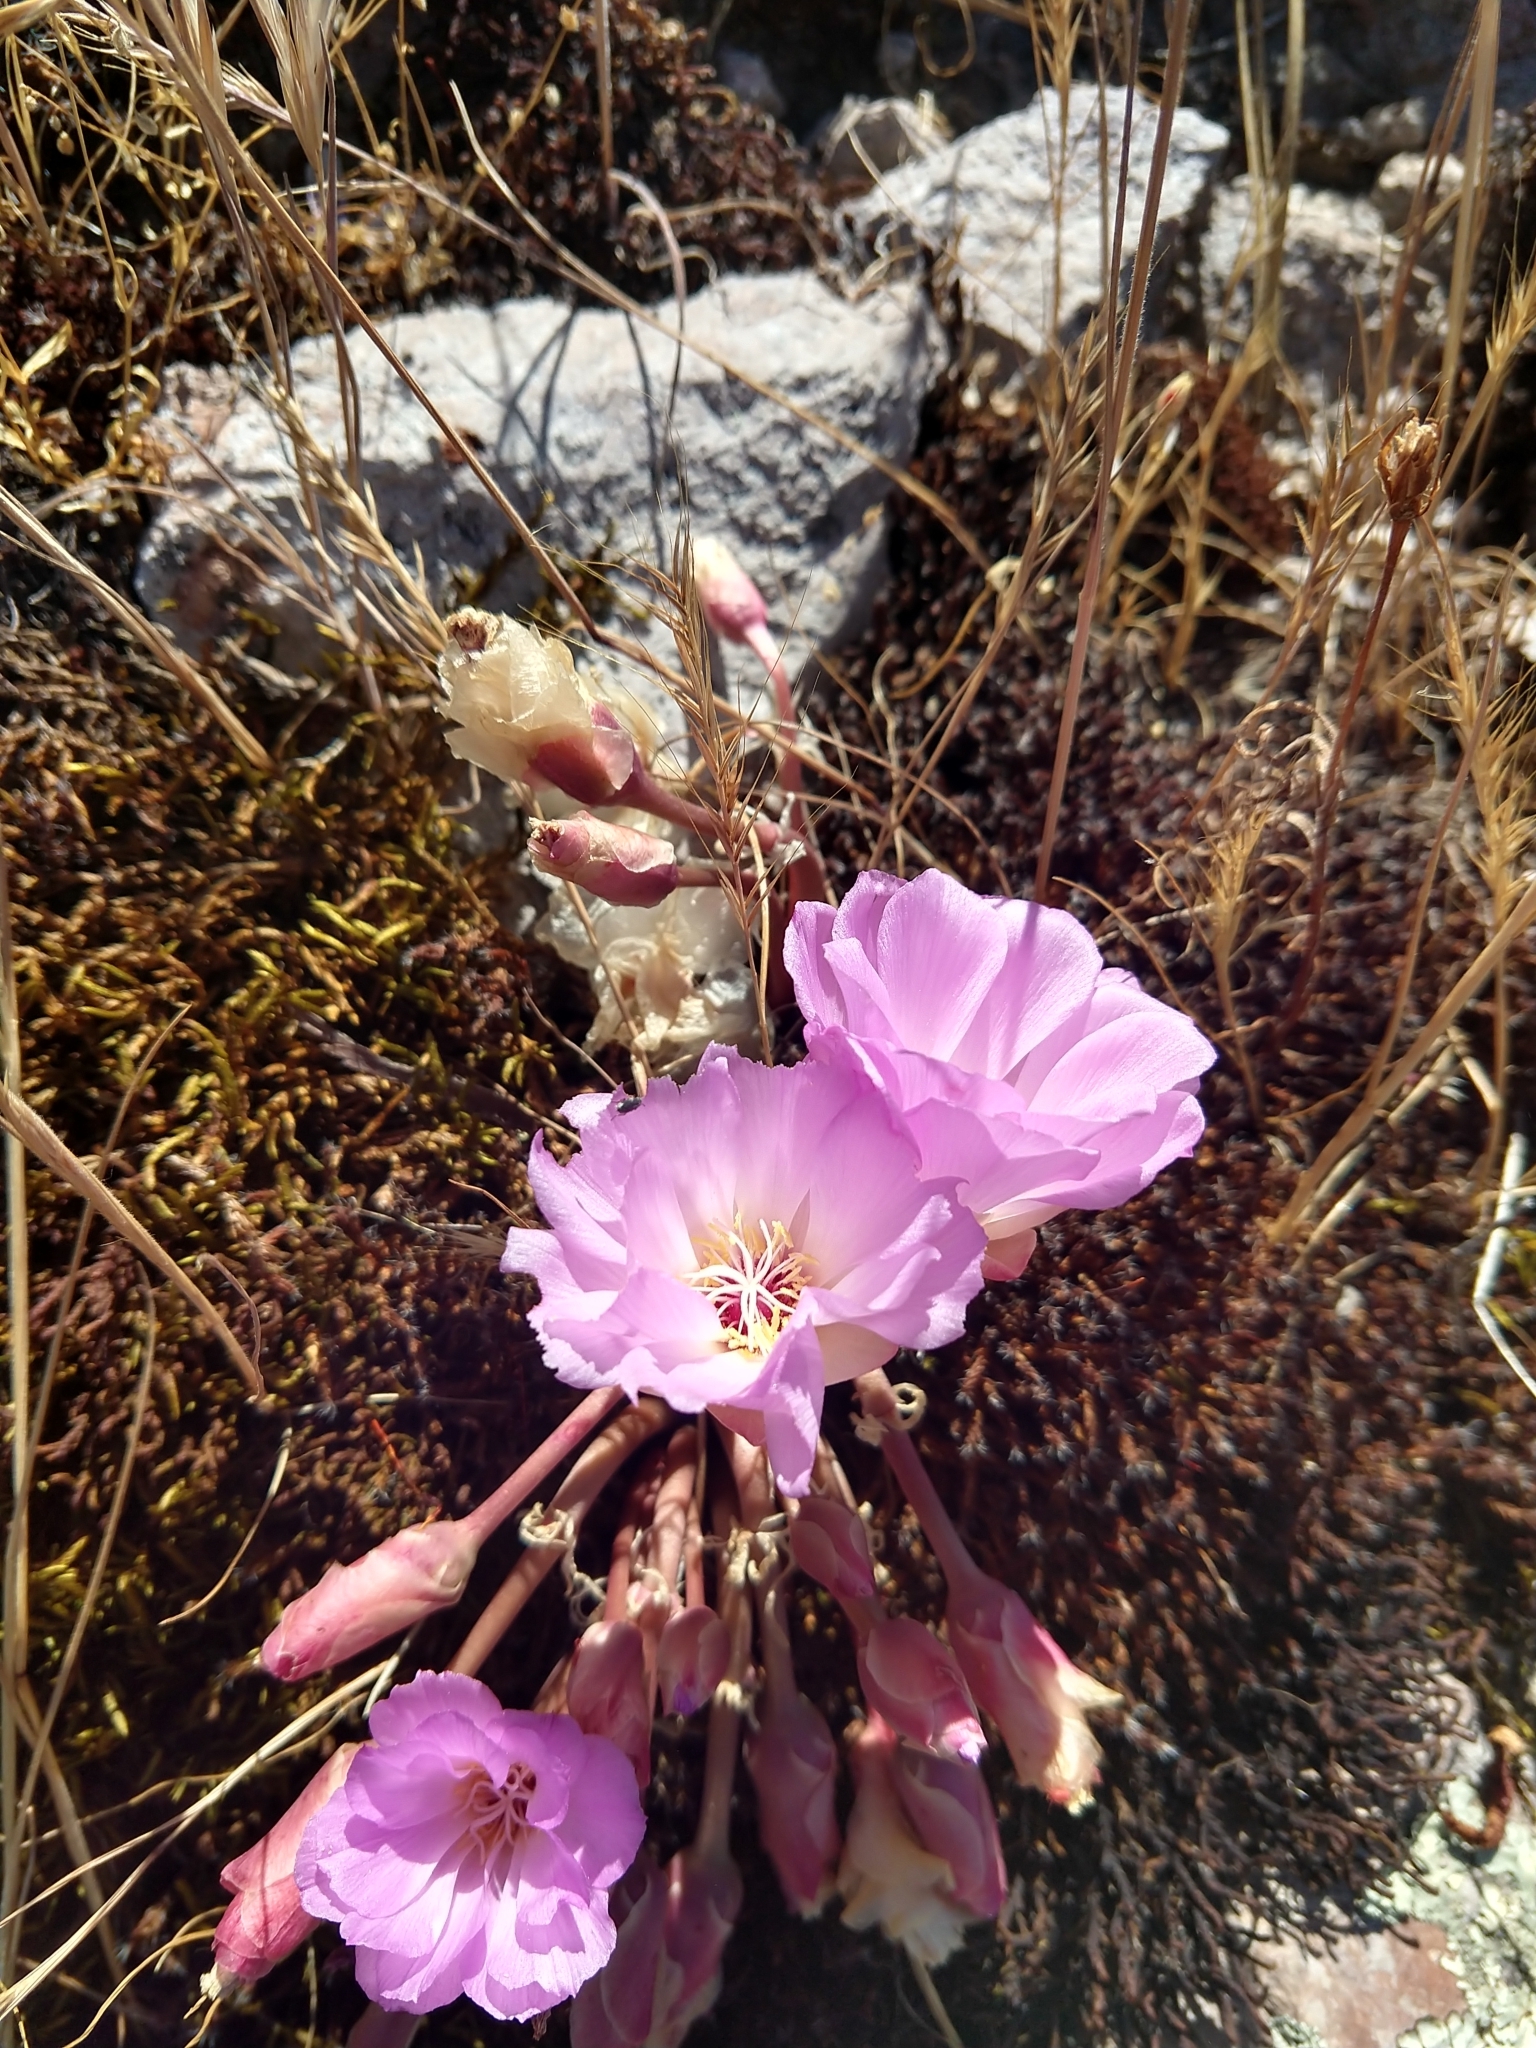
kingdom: Plantae
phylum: Tracheophyta
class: Magnoliopsida
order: Caryophyllales
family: Montiaceae
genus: Lewisia
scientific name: Lewisia rediviva
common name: Bitter-root
